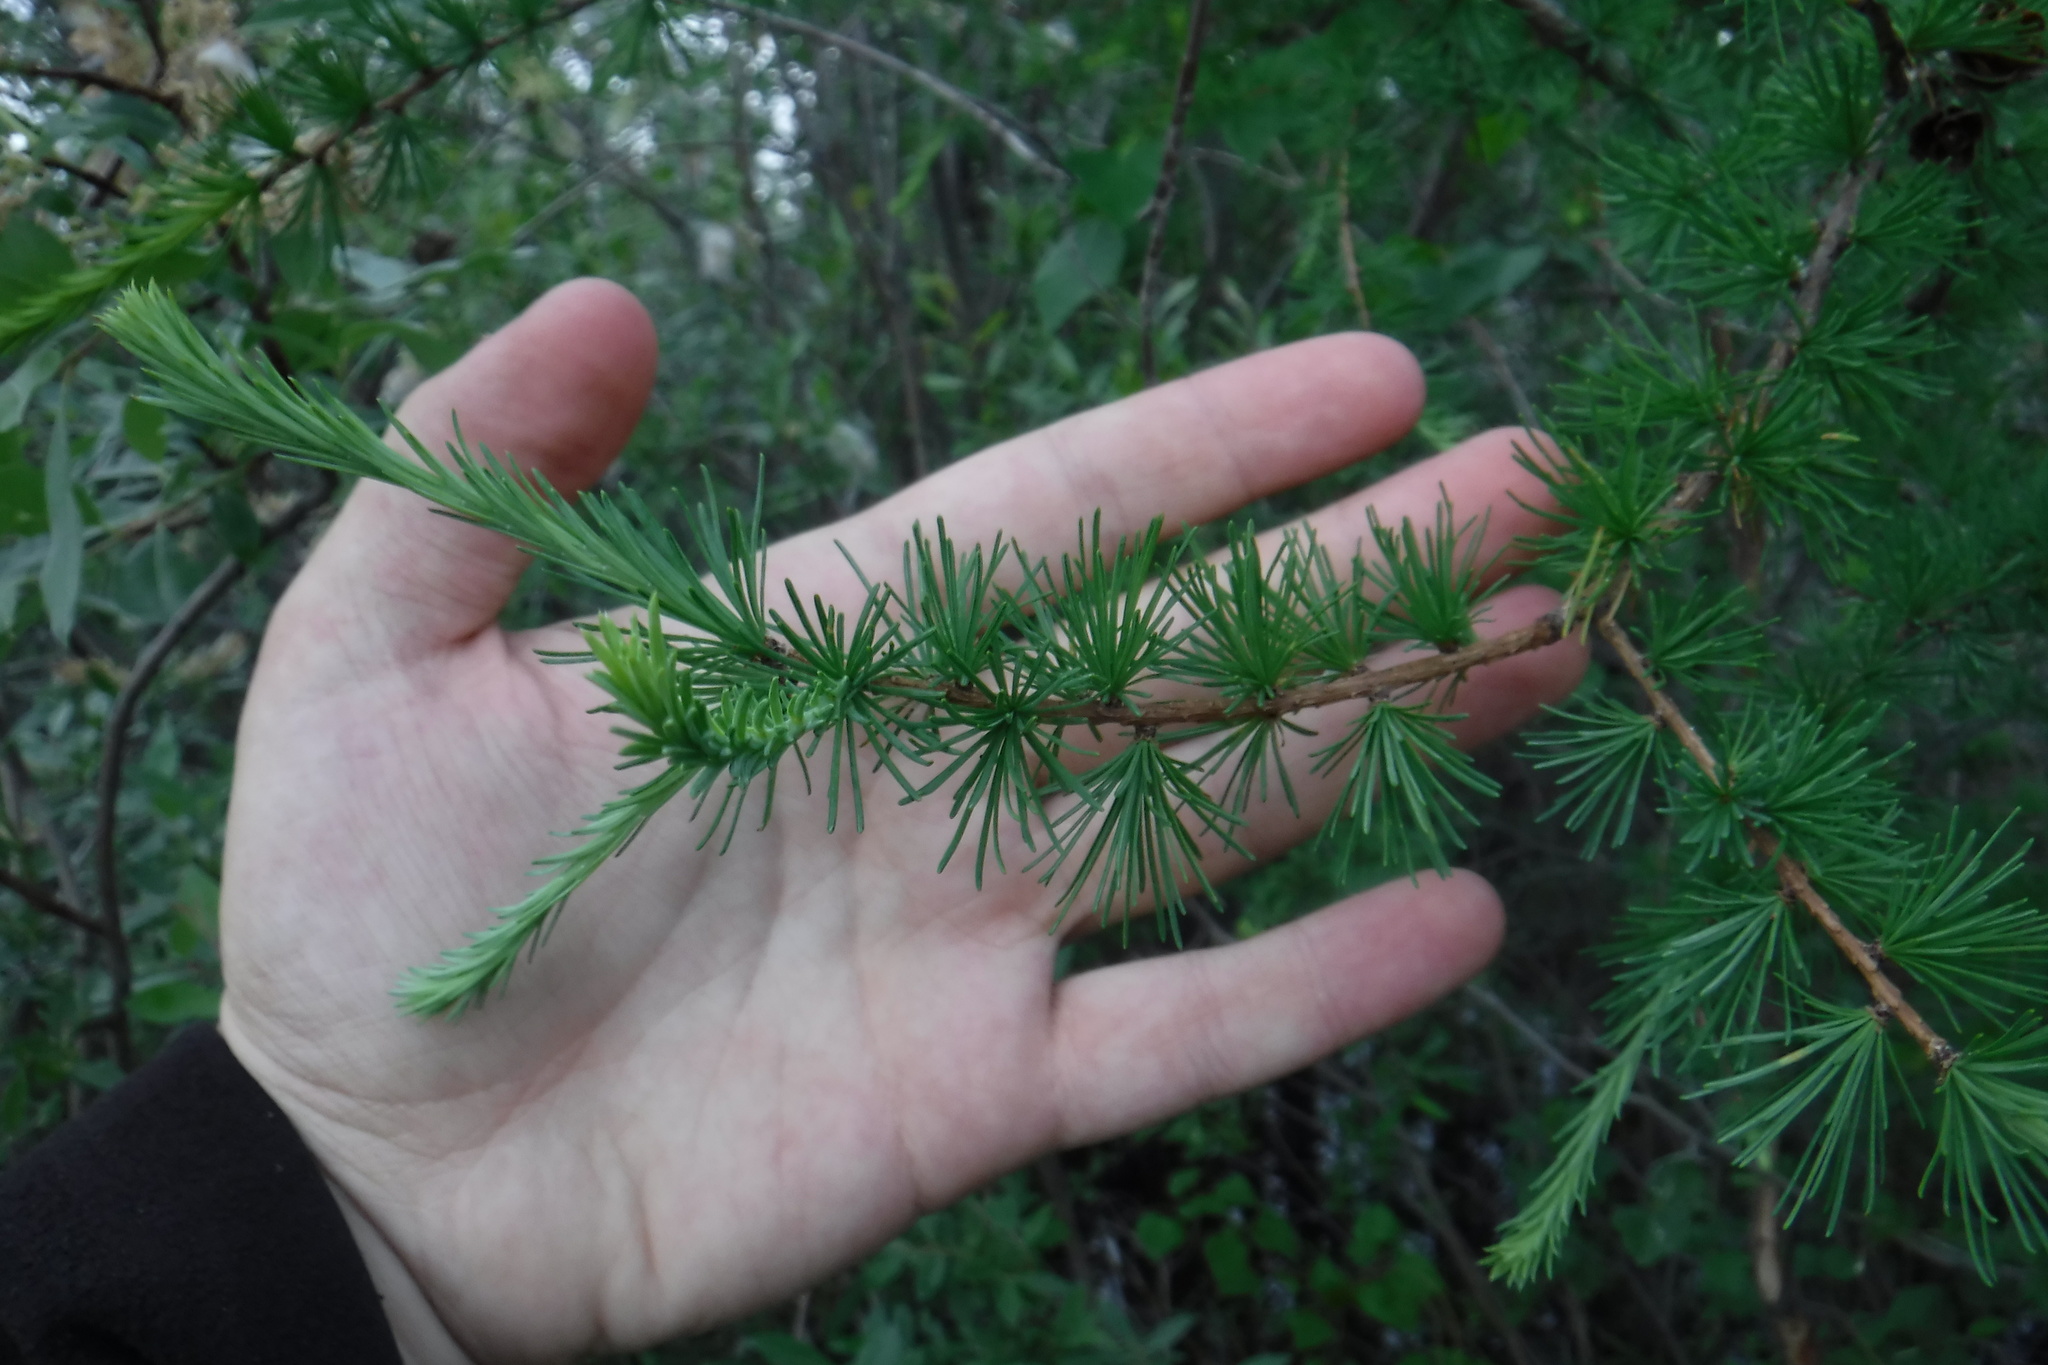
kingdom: Plantae
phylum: Tracheophyta
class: Pinopsida
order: Pinales
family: Pinaceae
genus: Larix
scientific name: Larix laricina
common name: American larch
